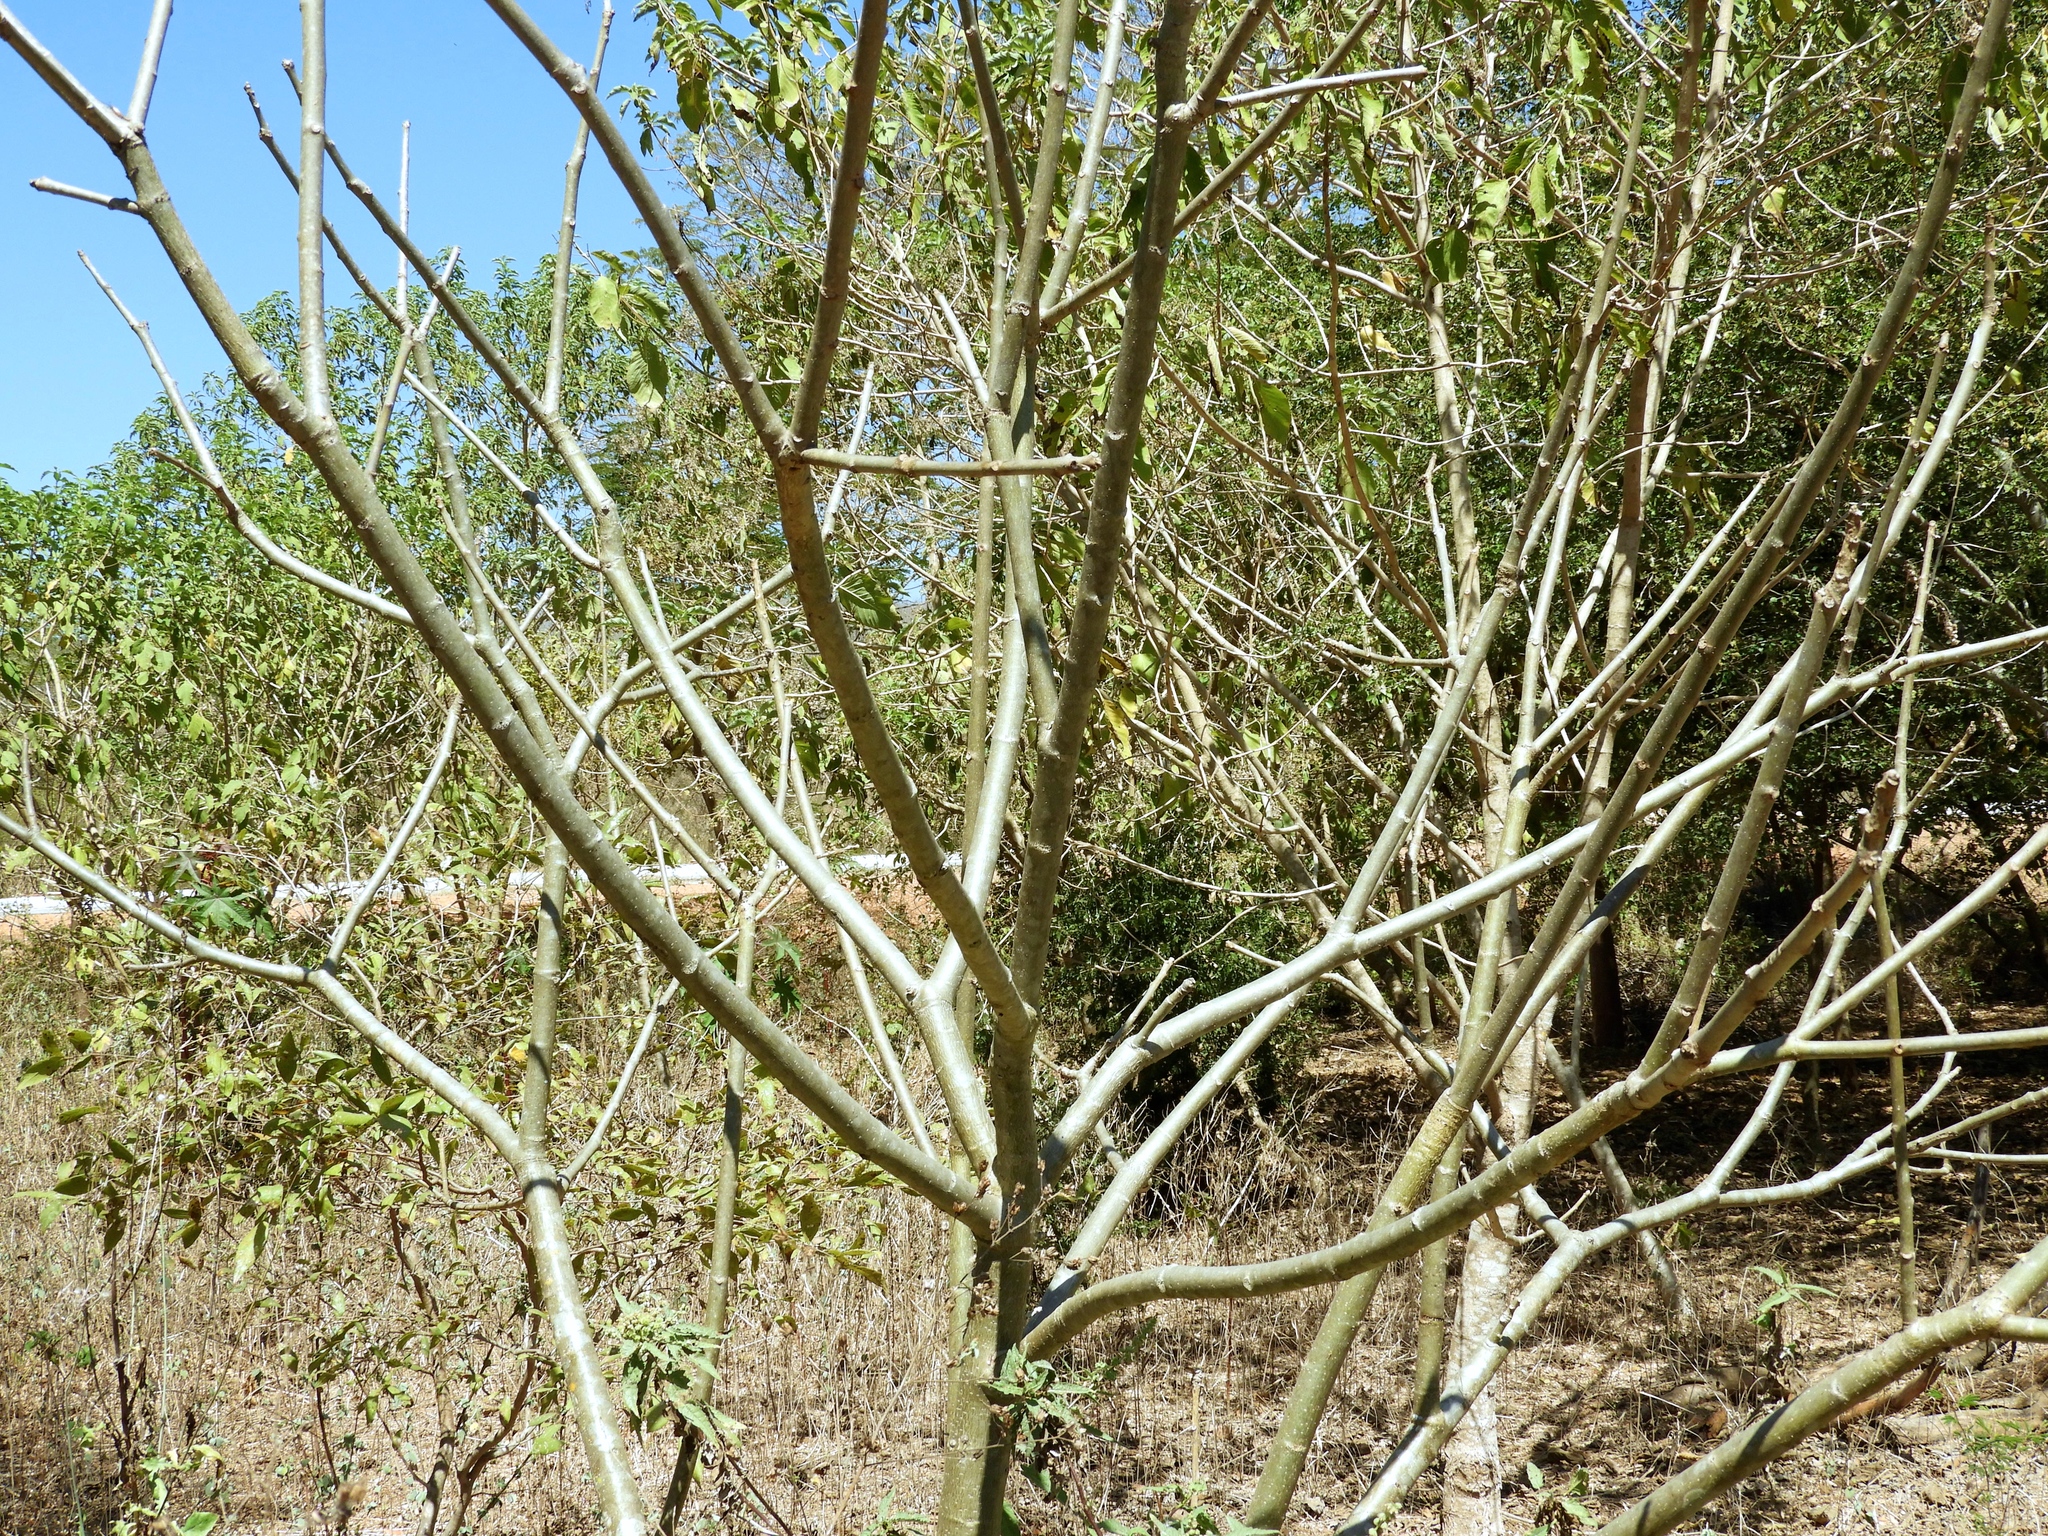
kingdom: Plantae
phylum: Tracheophyta
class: Magnoliopsida
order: Malpighiales
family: Euphorbiaceae
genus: Jatropha
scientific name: Jatropha curcas
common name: Barbados nut
